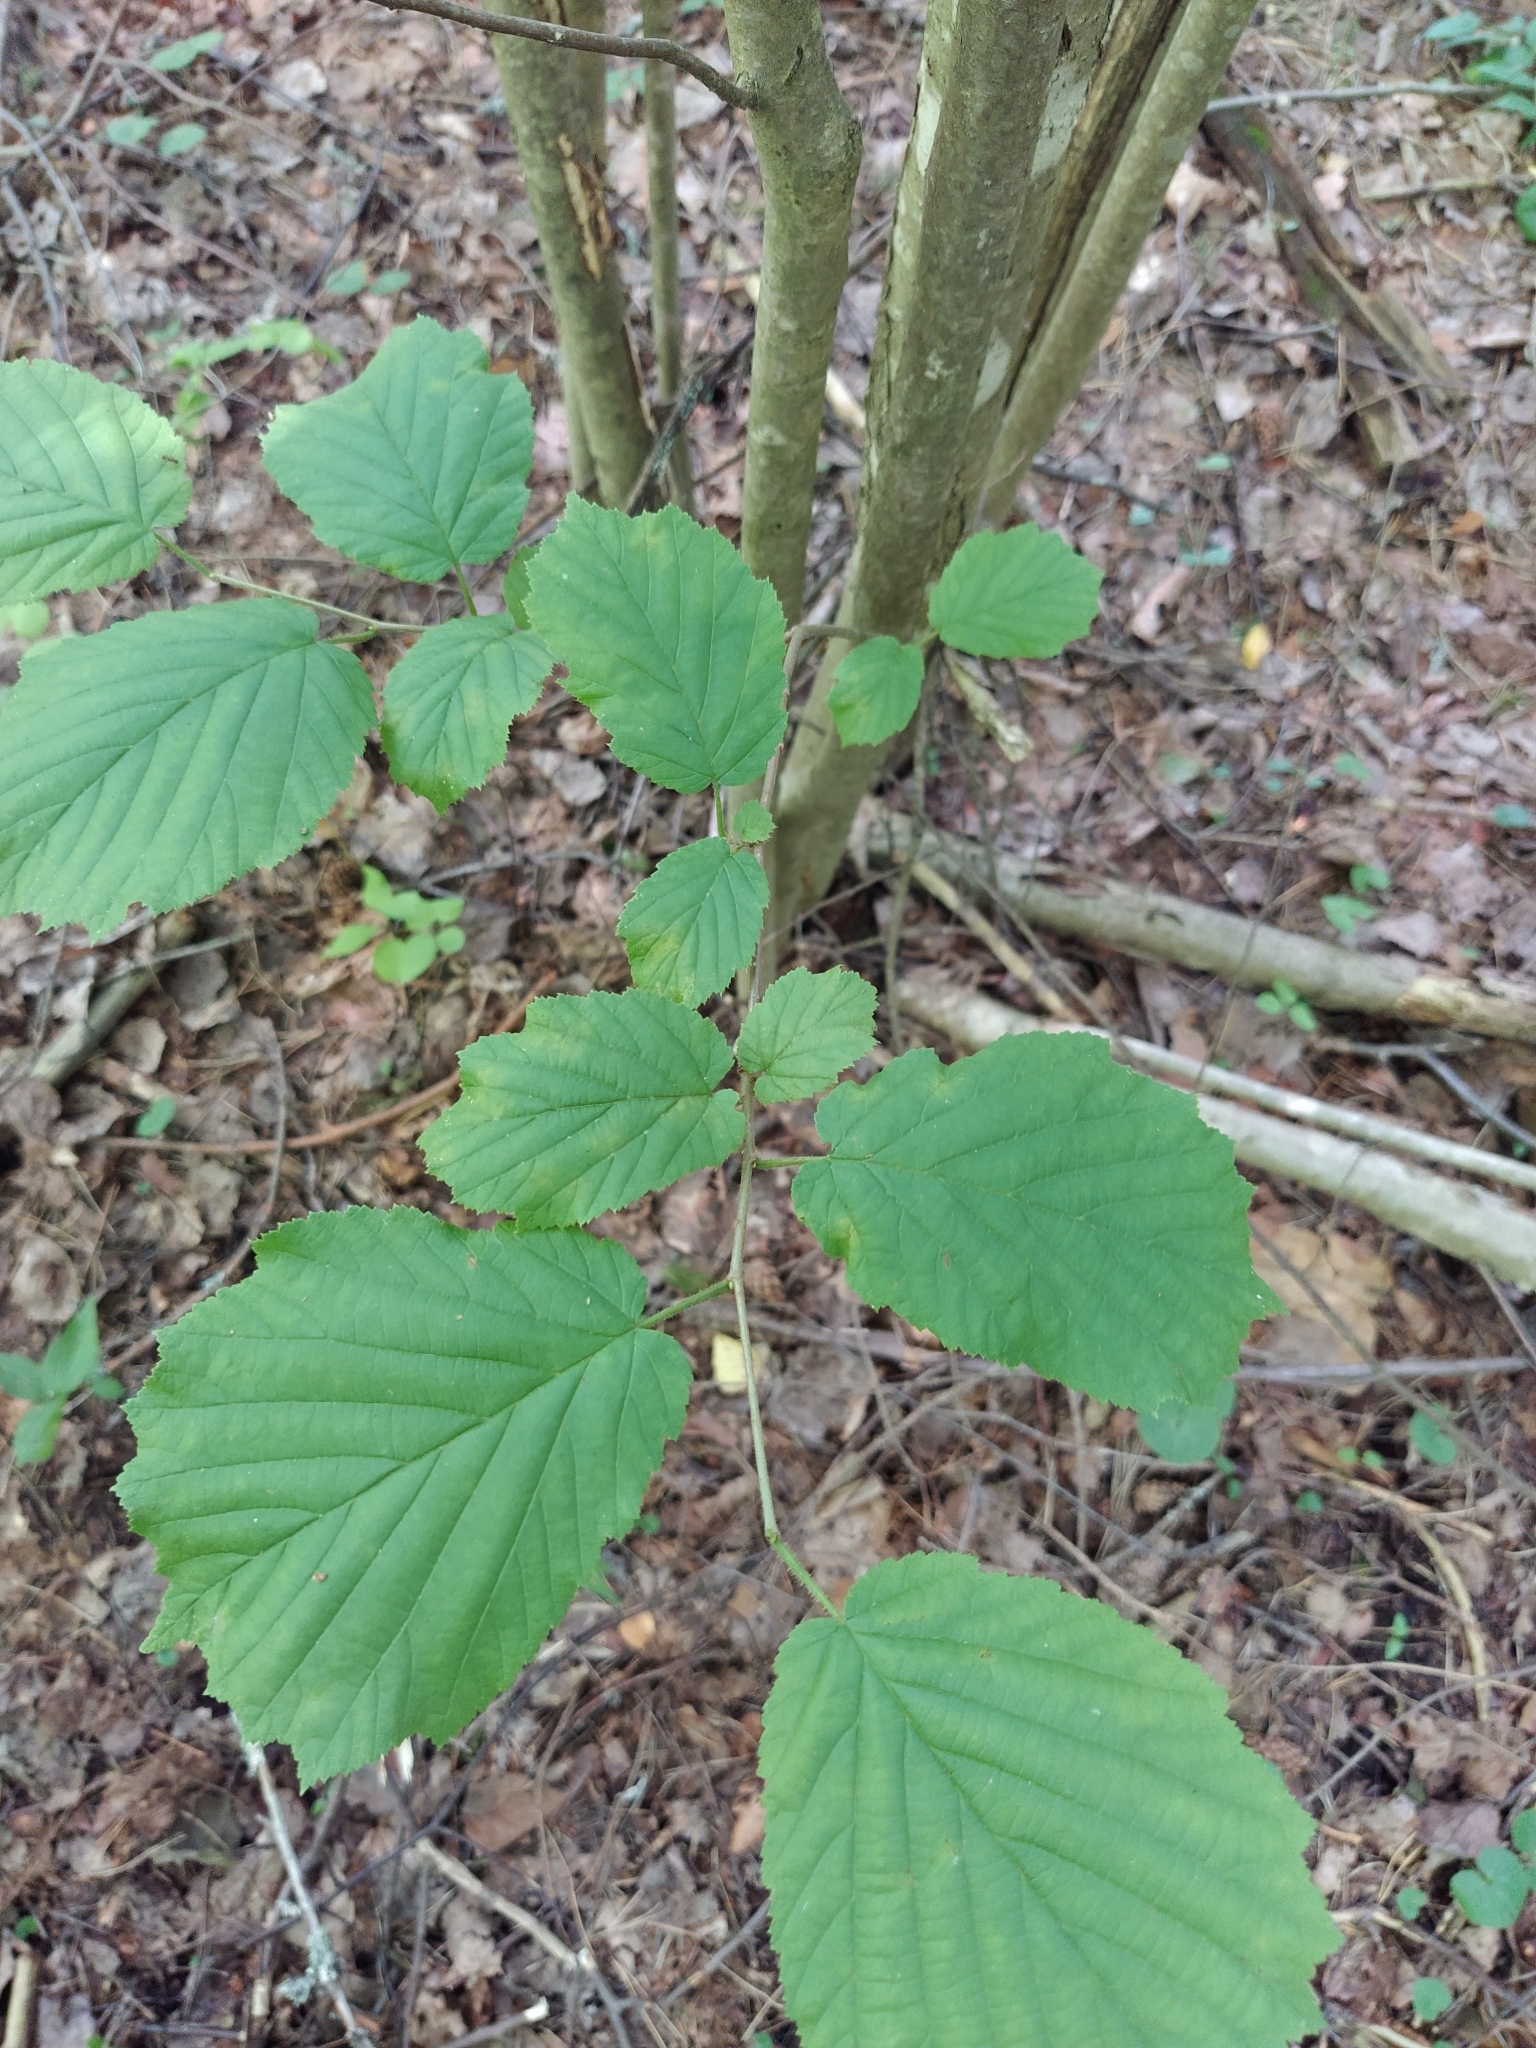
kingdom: Plantae
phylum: Tracheophyta
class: Magnoliopsida
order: Fagales
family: Betulaceae
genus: Corylus
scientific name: Corylus avellana
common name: European hazel
